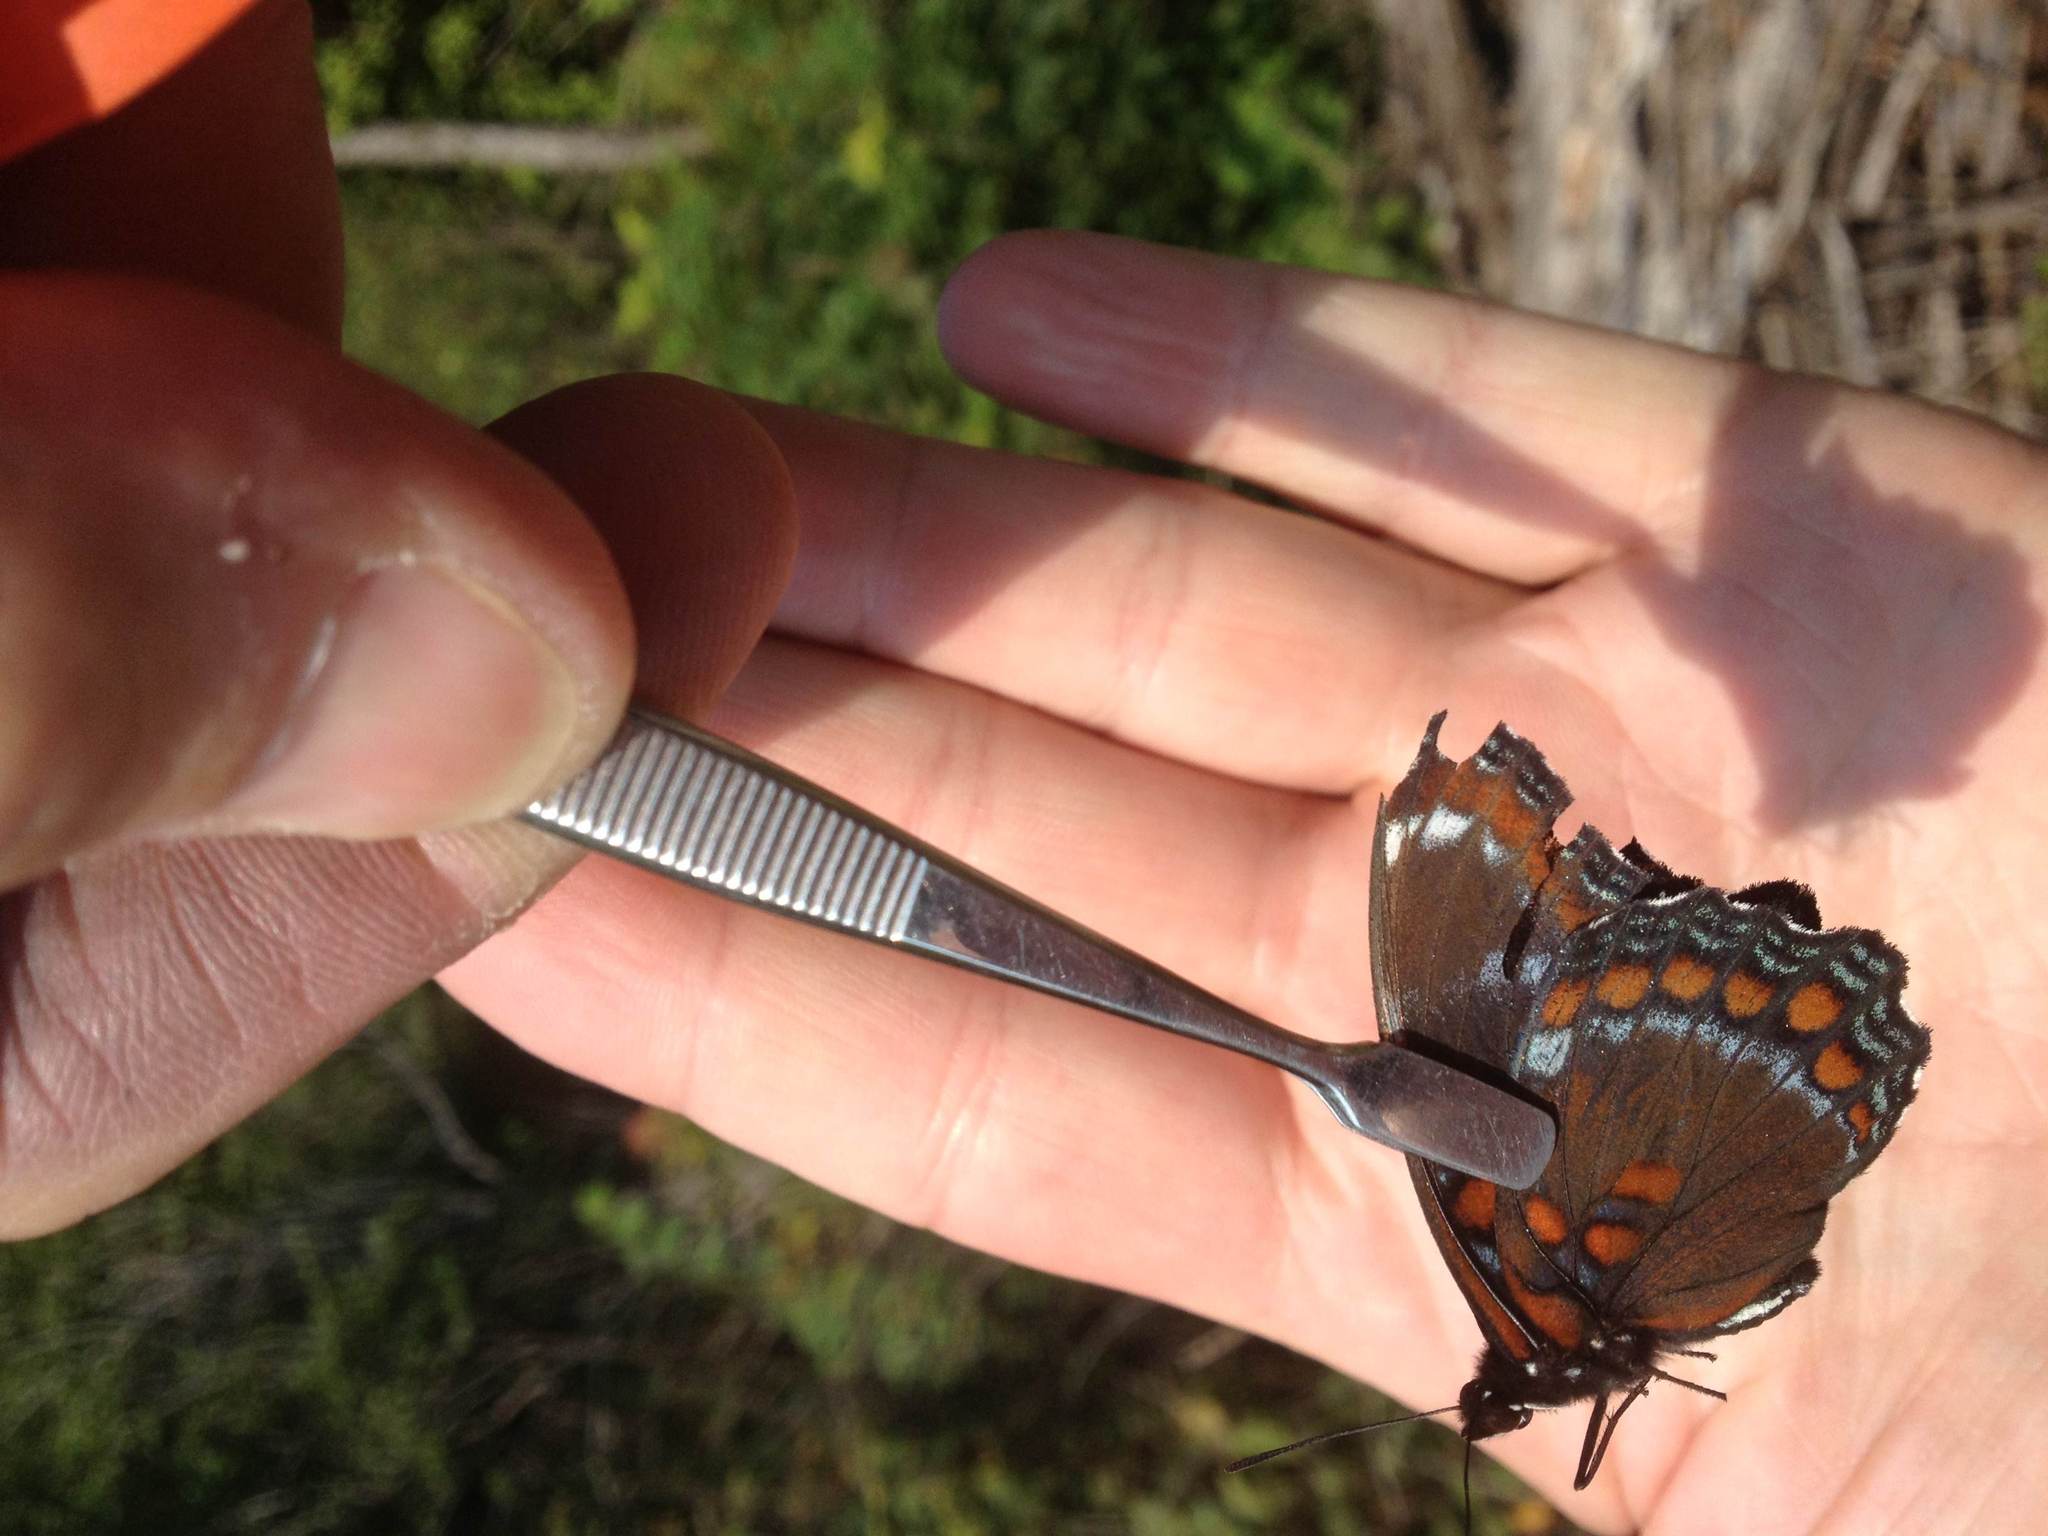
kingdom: Animalia
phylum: Arthropoda
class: Insecta
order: Lepidoptera
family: Nymphalidae
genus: Limenitis
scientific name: Limenitis arthemis
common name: Red-spotted admiral
